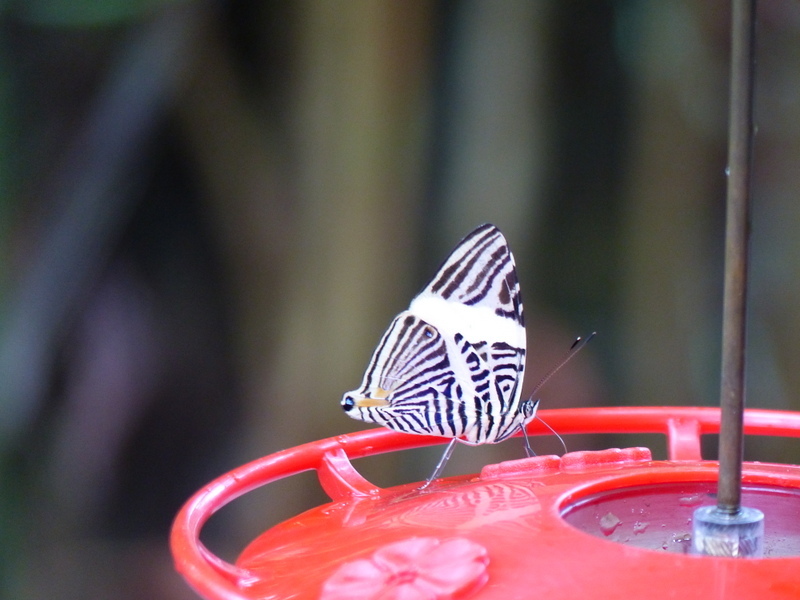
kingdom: Animalia
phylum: Arthropoda
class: Insecta
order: Lepidoptera
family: Nymphalidae
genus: Colobura
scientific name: Colobura dirce
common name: Dirce beauty
